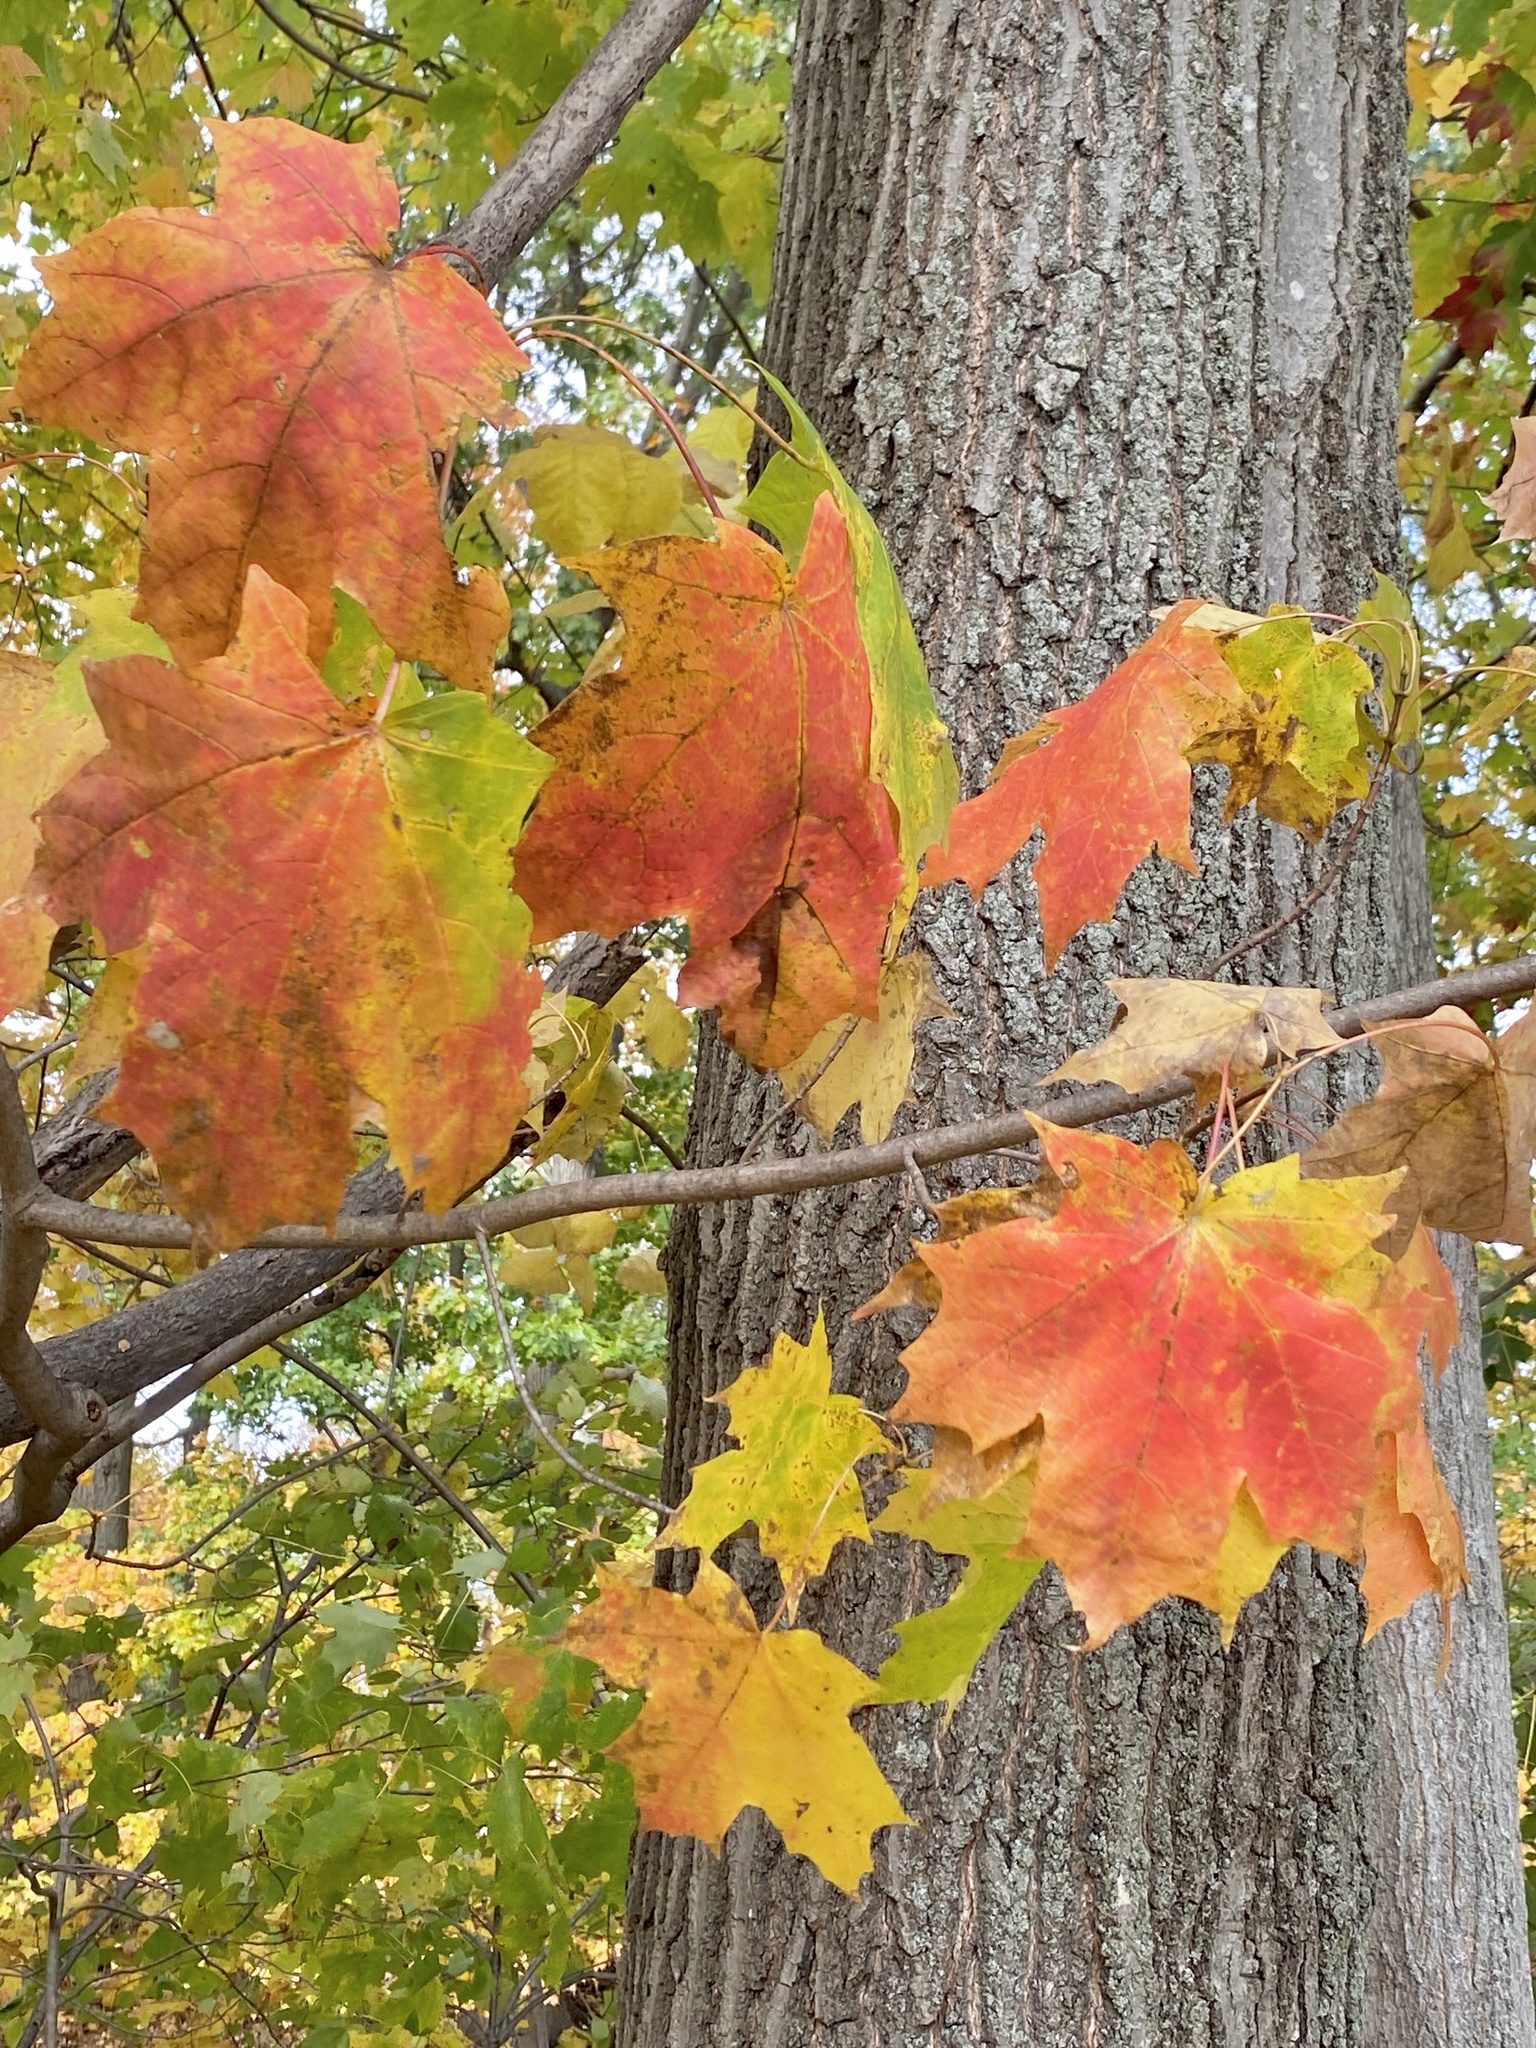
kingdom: Plantae
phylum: Tracheophyta
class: Magnoliopsida
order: Sapindales
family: Sapindaceae
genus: Acer
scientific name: Acer saccharum
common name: Sugar maple
